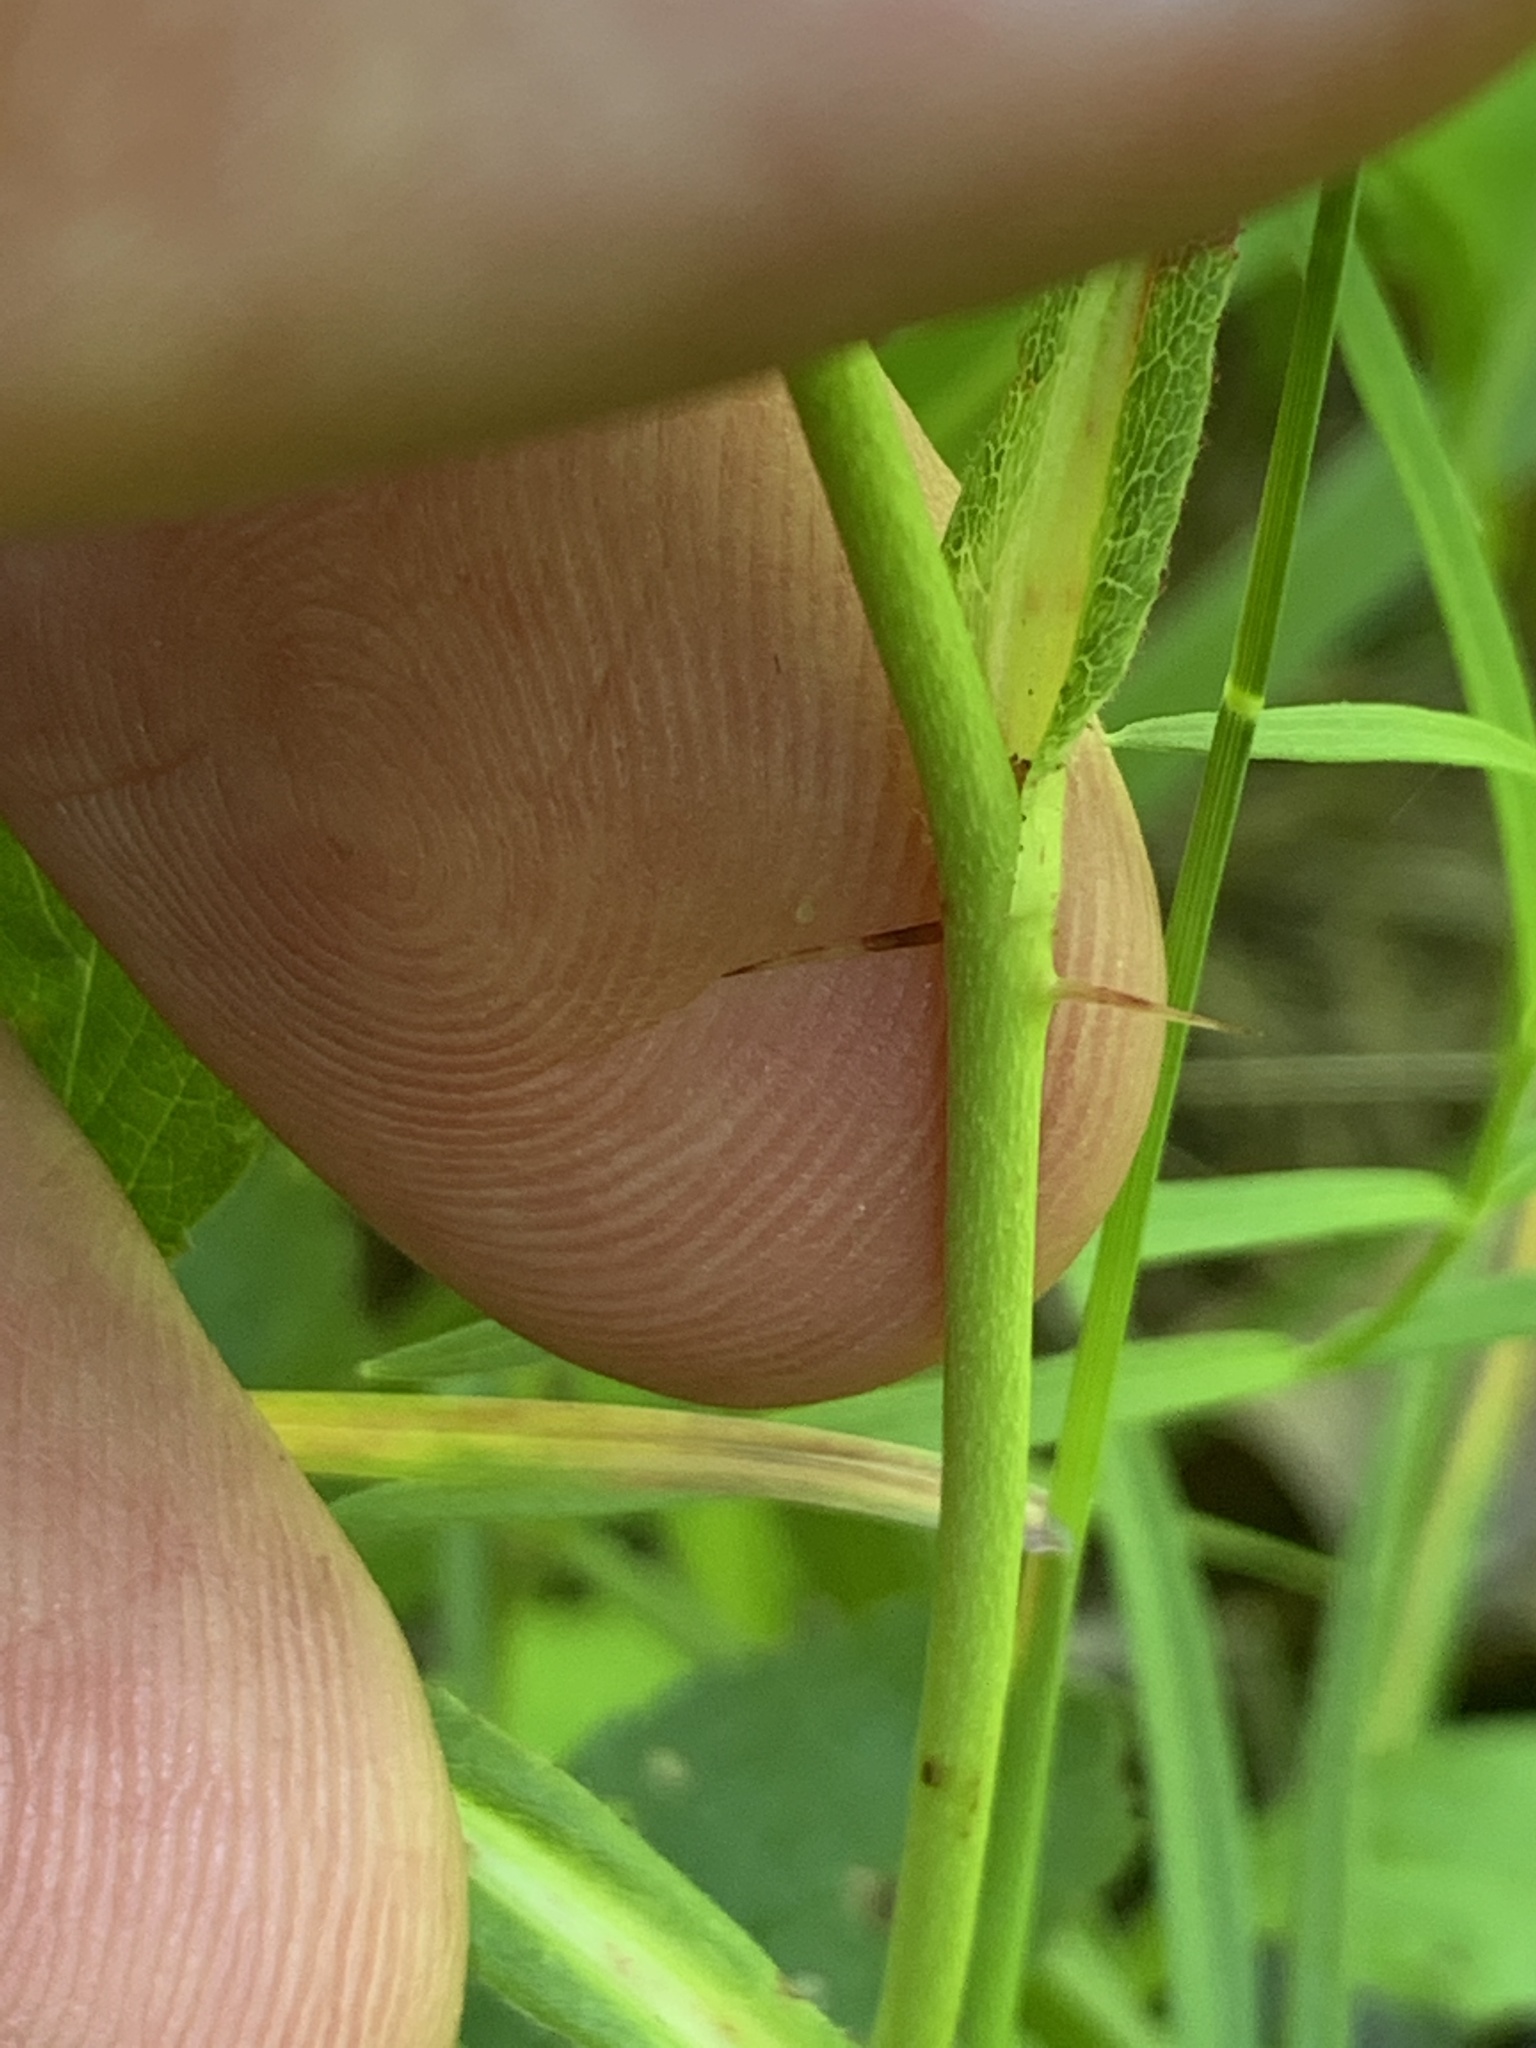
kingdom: Plantae
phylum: Tracheophyta
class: Magnoliopsida
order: Rosales
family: Rosaceae
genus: Rosa
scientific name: Rosa carolina
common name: Pasture rose
